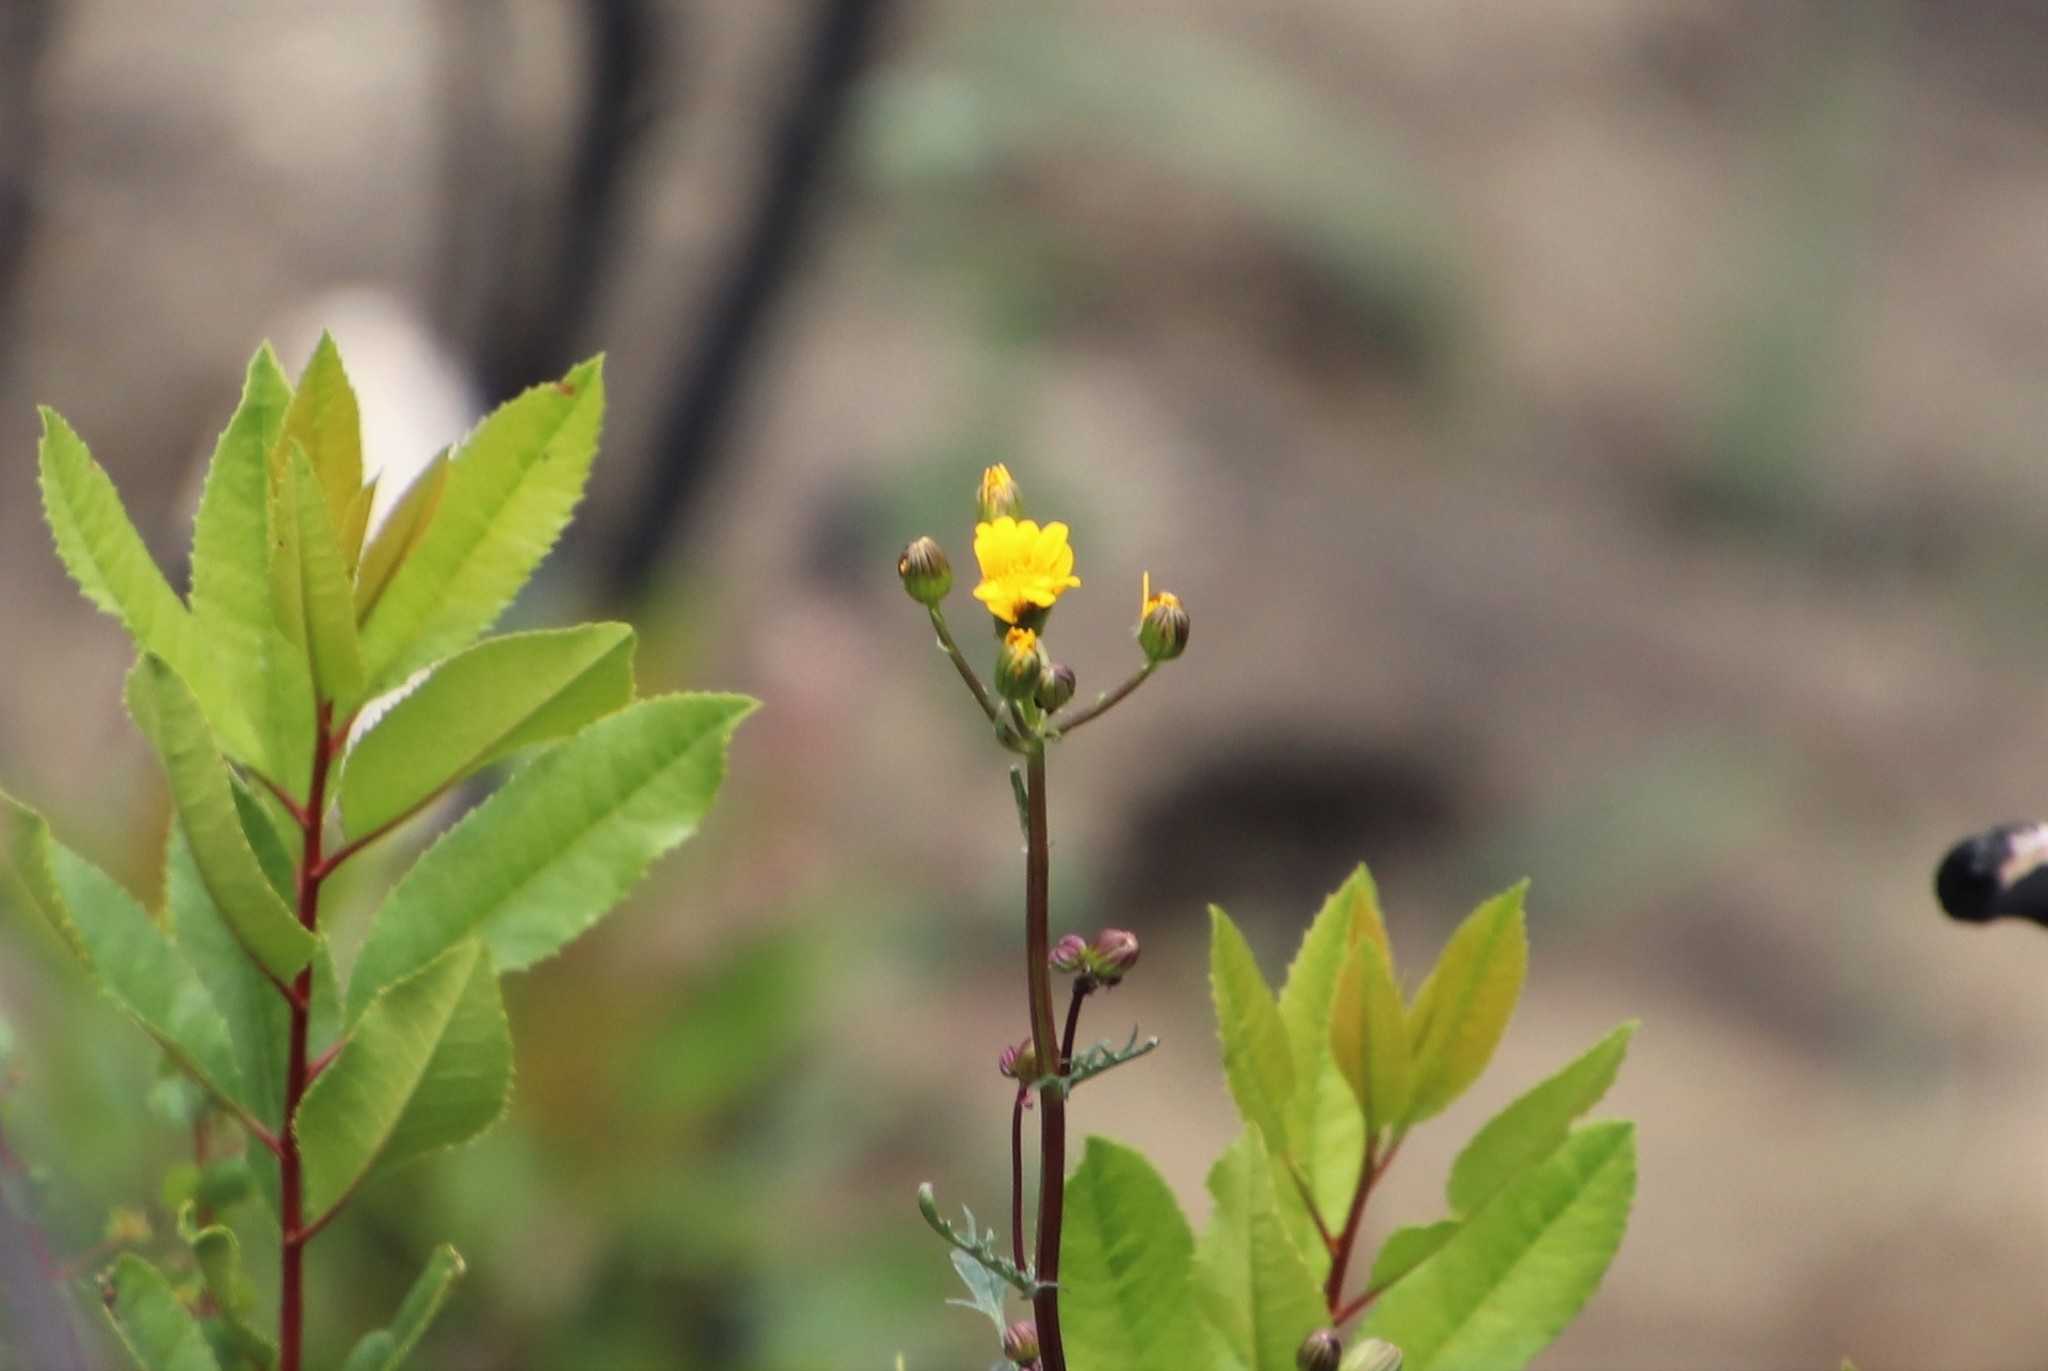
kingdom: Plantae
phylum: Tracheophyta
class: Magnoliopsida
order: Asterales
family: Asteraceae
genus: Packera
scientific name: Packera ganderi
